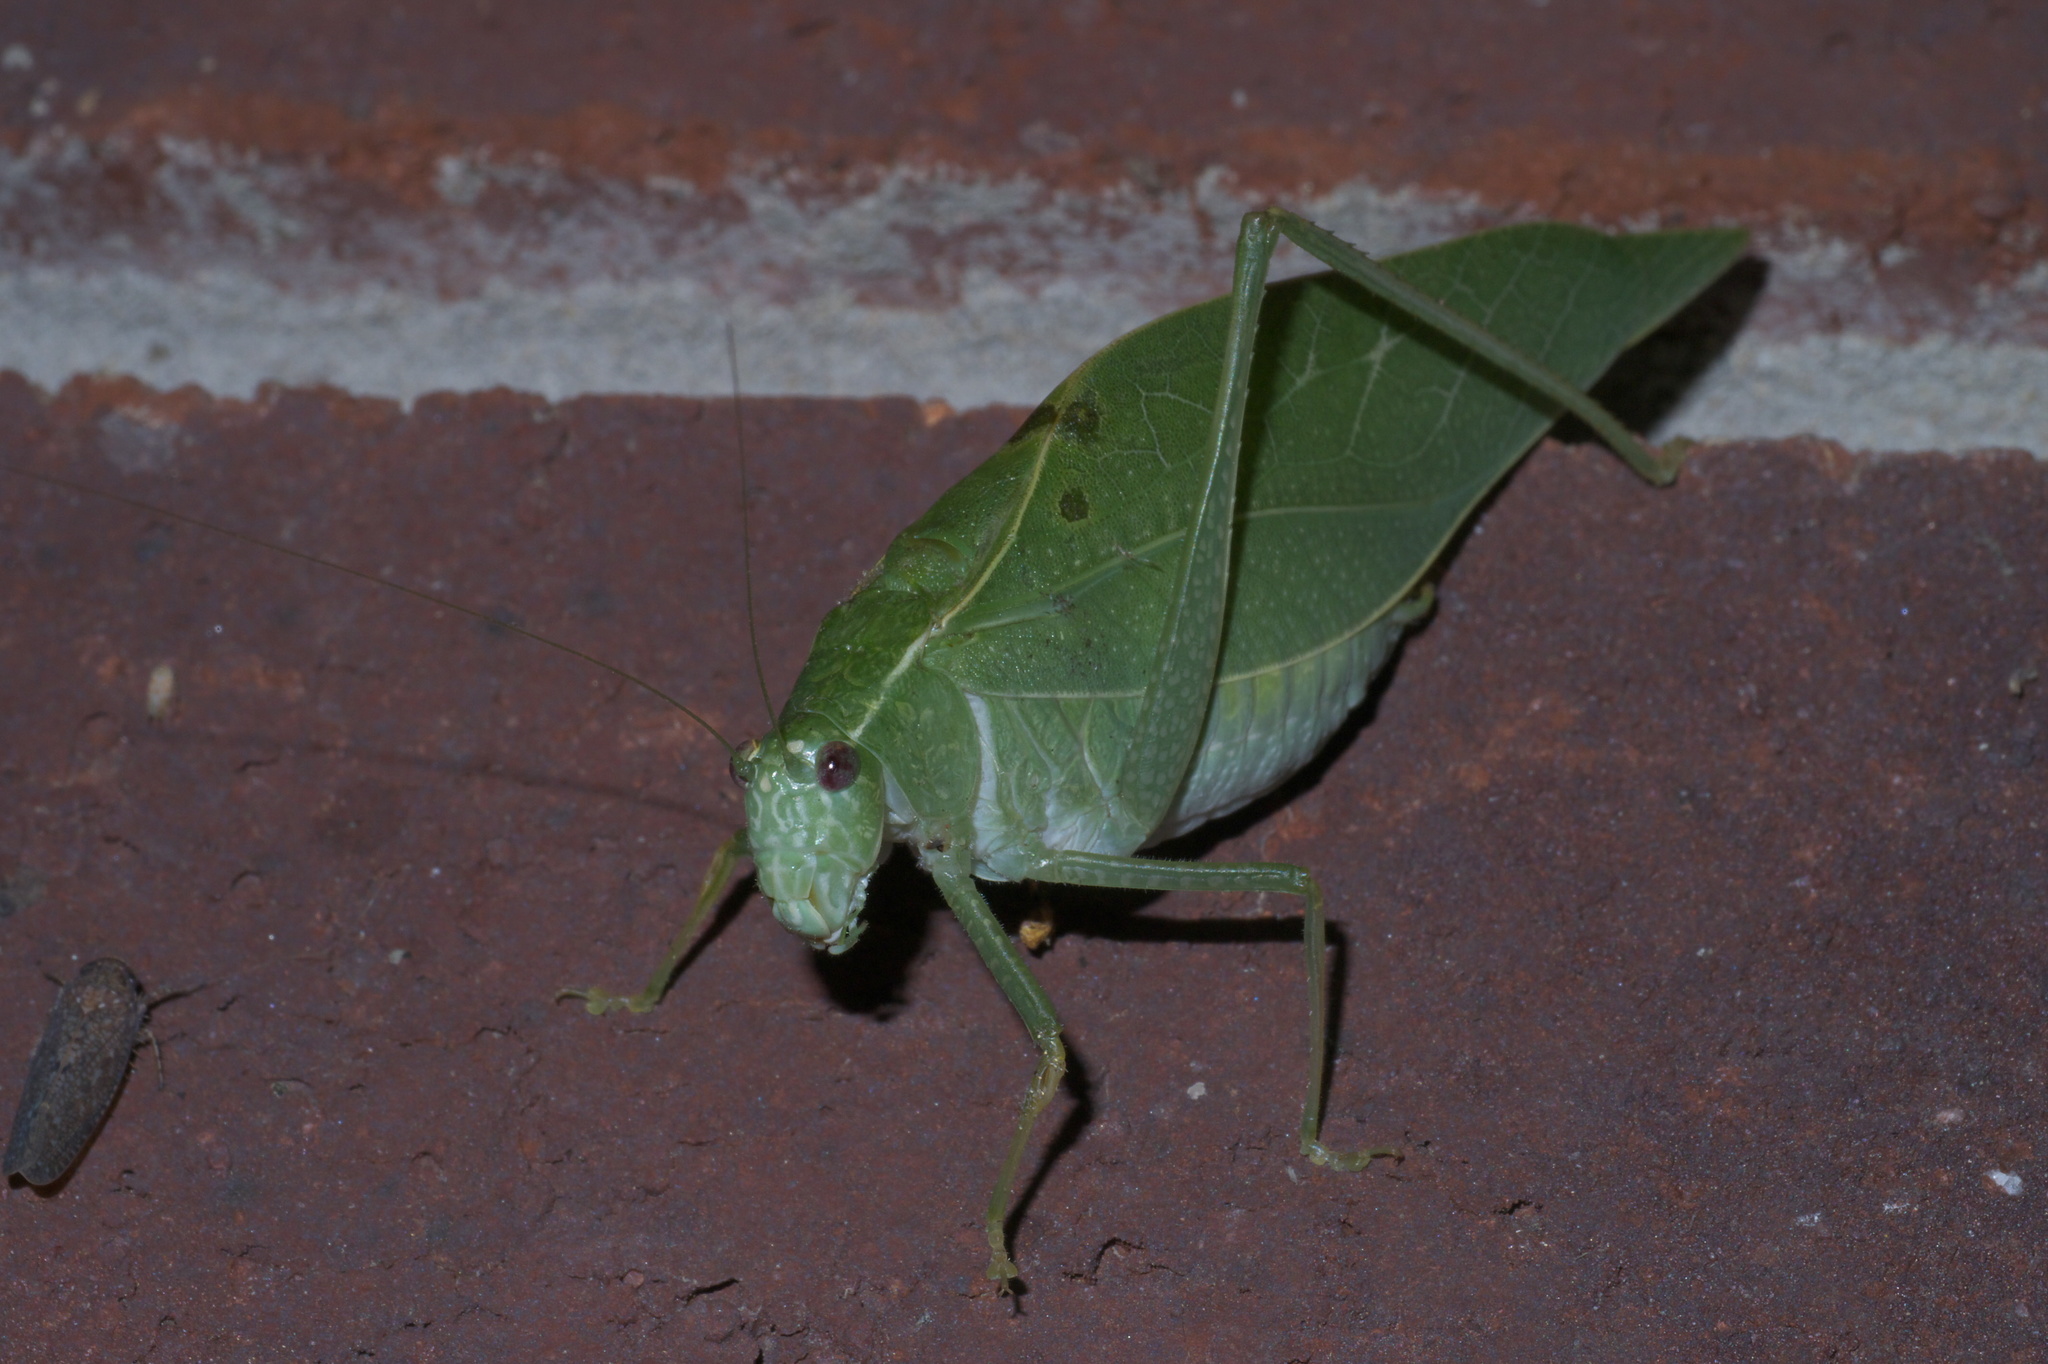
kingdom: Animalia
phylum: Arthropoda
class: Insecta
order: Orthoptera
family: Tettigoniidae
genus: Microcentrum
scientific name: Microcentrum rhombifolium
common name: Broad-winged katydid
